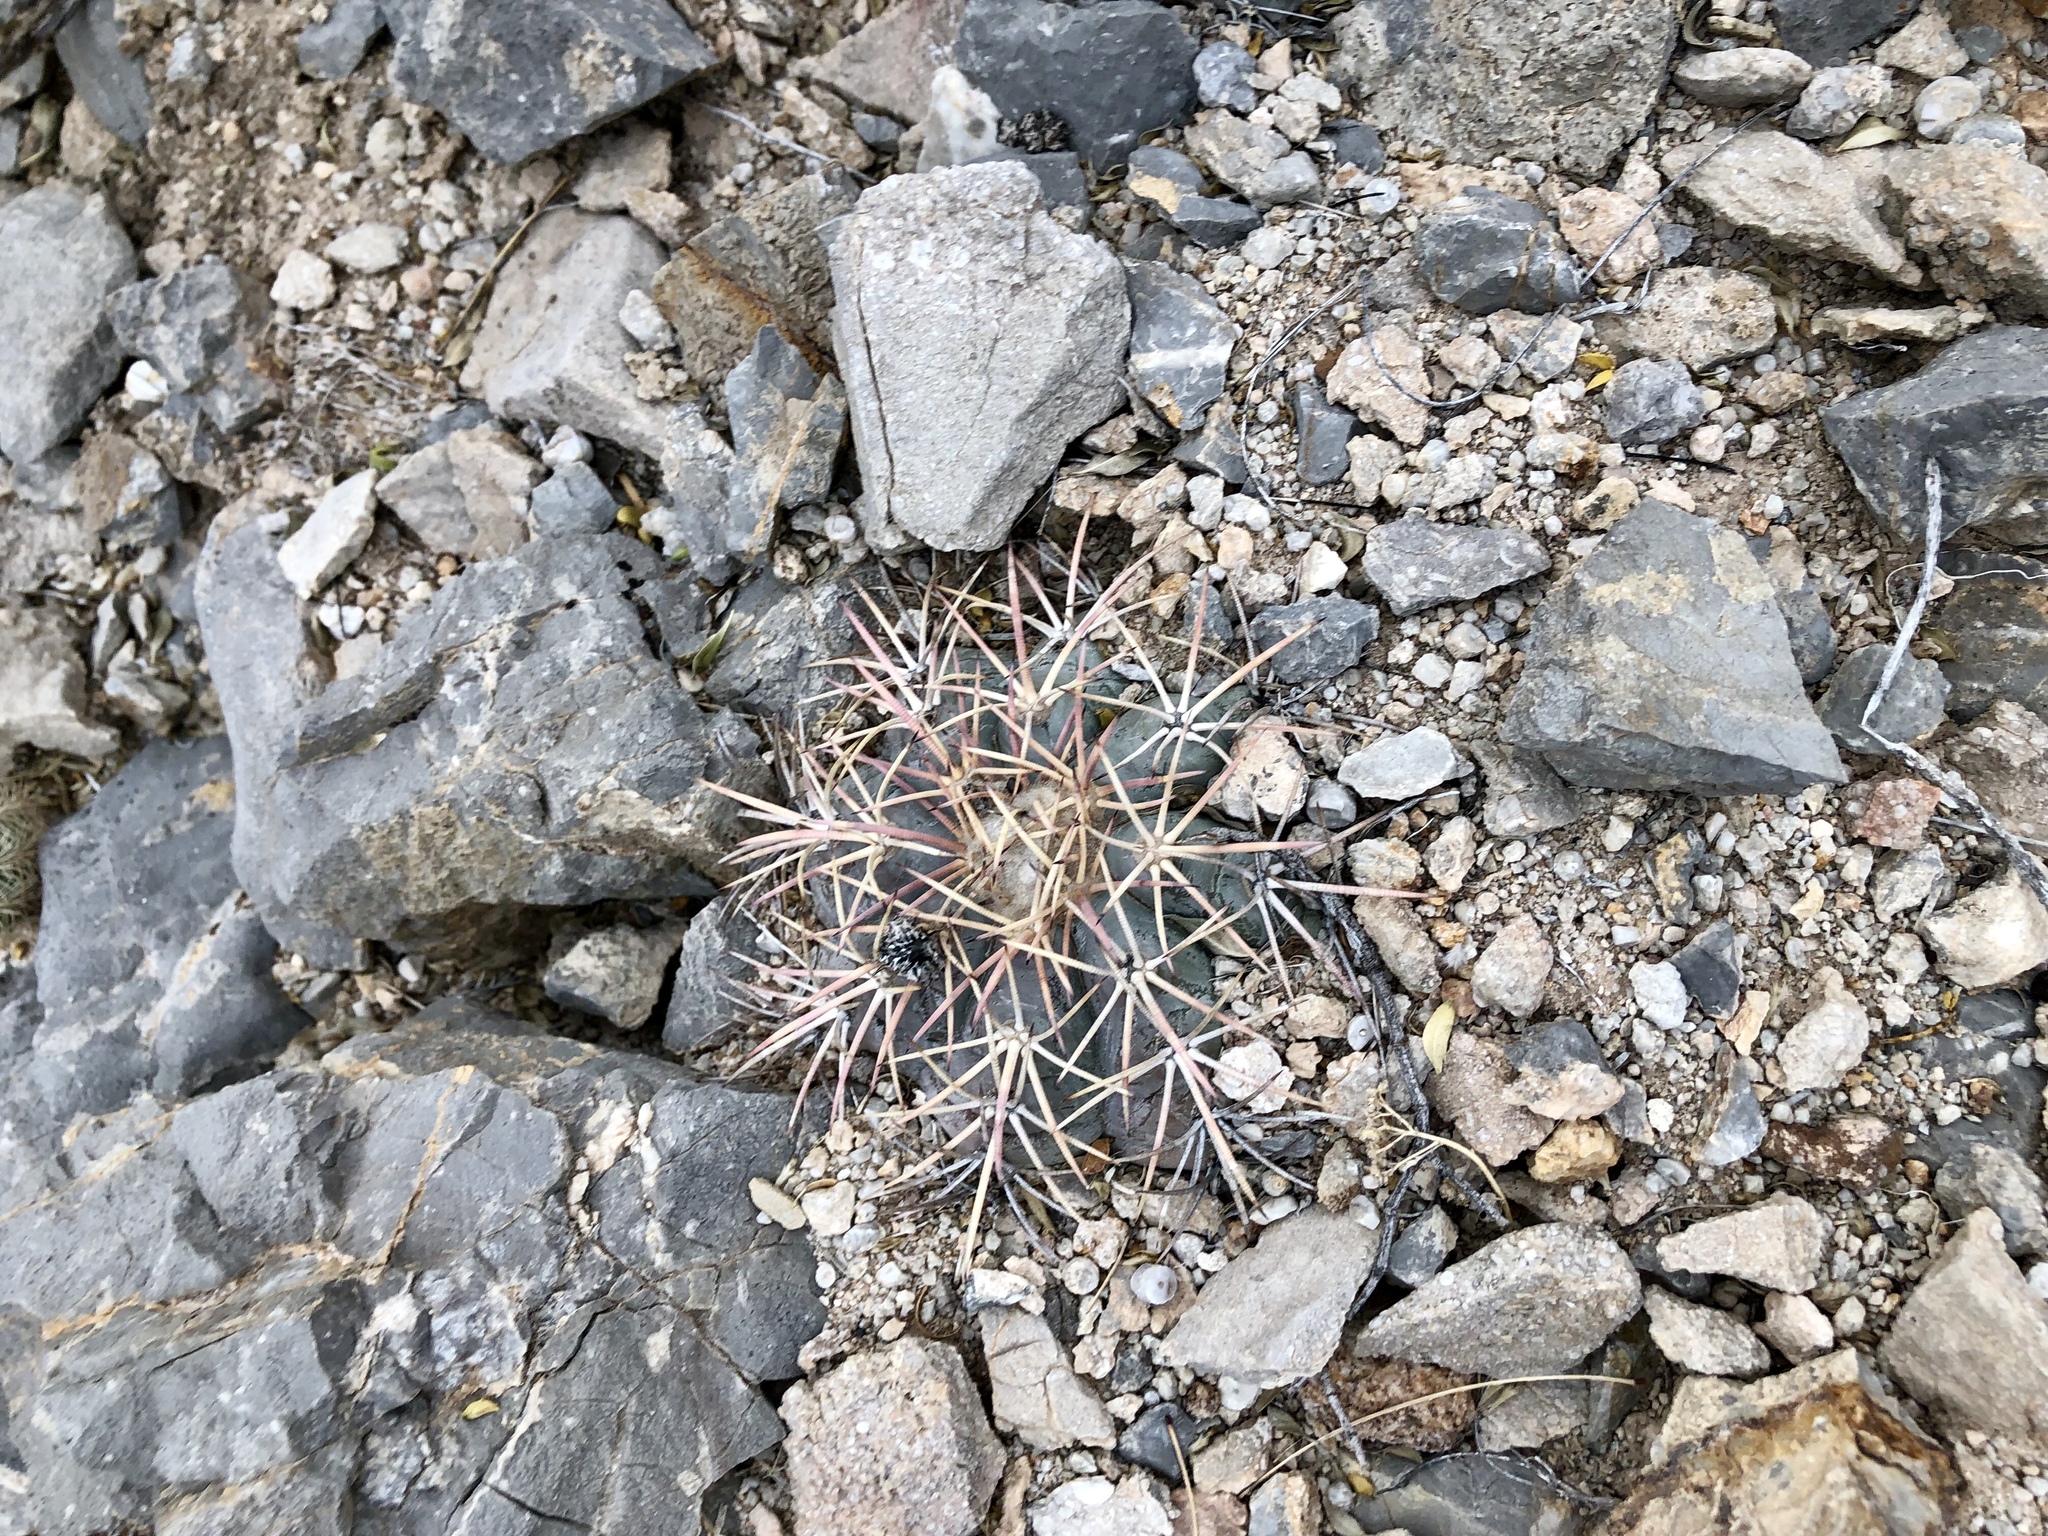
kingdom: Plantae
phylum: Tracheophyta
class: Magnoliopsida
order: Caryophyllales
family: Cactaceae
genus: Echinocactus
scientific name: Echinocactus horizonthalonius
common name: Devilshead
